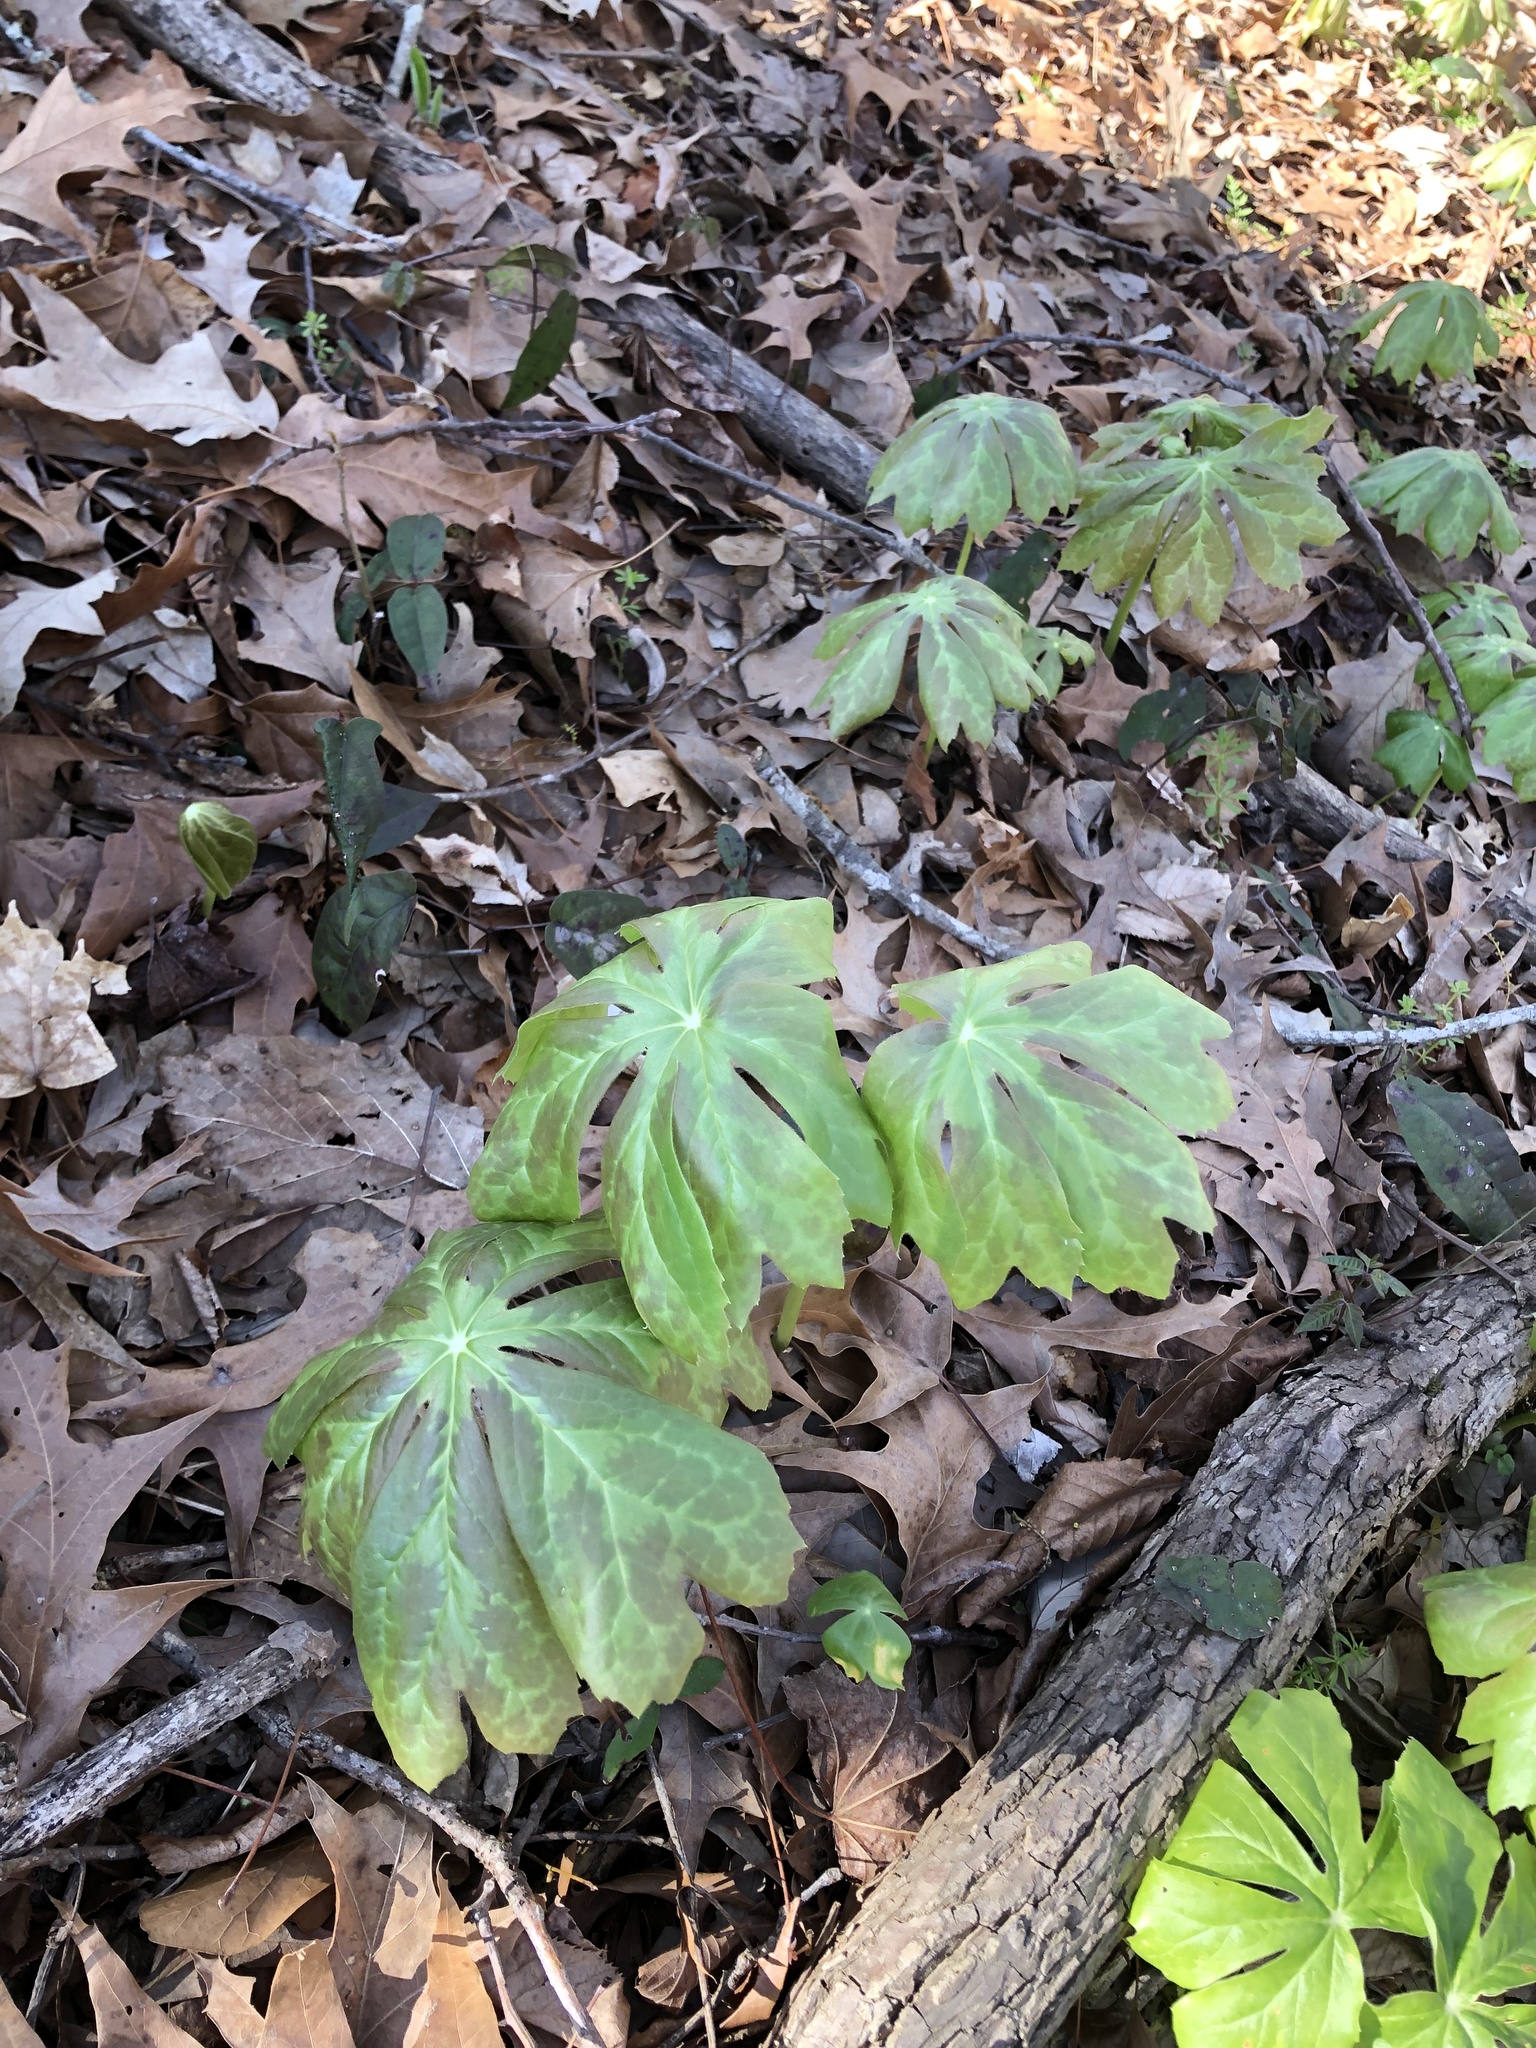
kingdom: Plantae
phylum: Tracheophyta
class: Magnoliopsida
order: Ranunculales
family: Berberidaceae
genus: Podophyllum
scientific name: Podophyllum peltatum
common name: Wild mandrake
